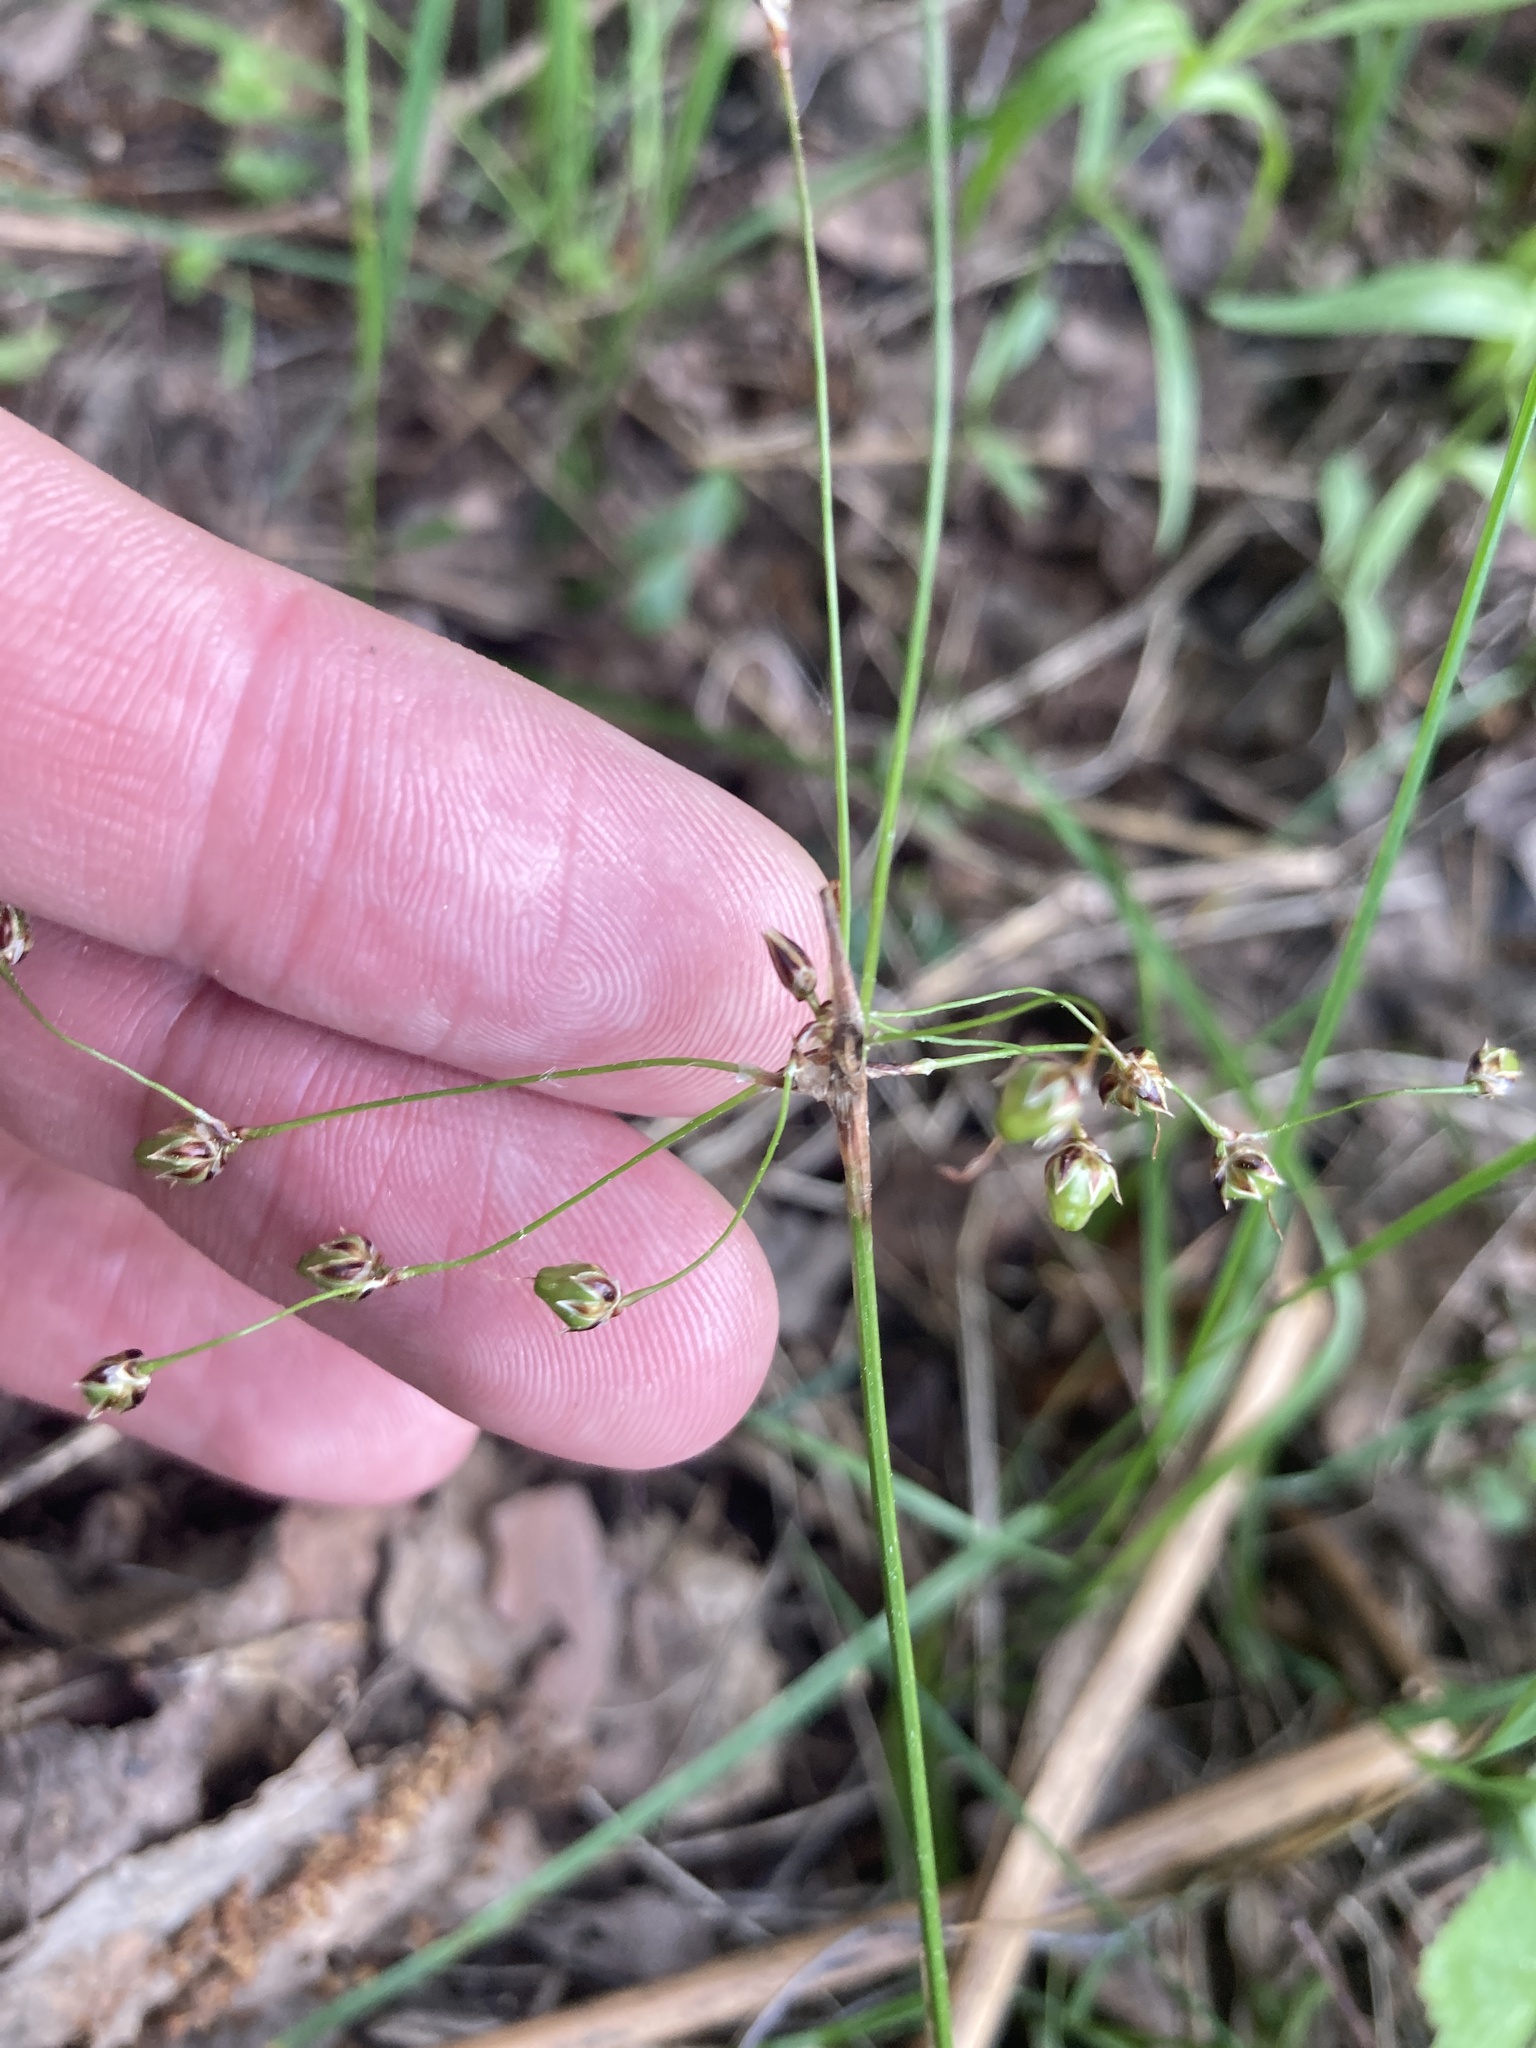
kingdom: Plantae
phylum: Tracheophyta
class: Liliopsida
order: Poales
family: Juncaceae
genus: Luzula
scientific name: Luzula pilosa
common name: Hairy wood-rush
